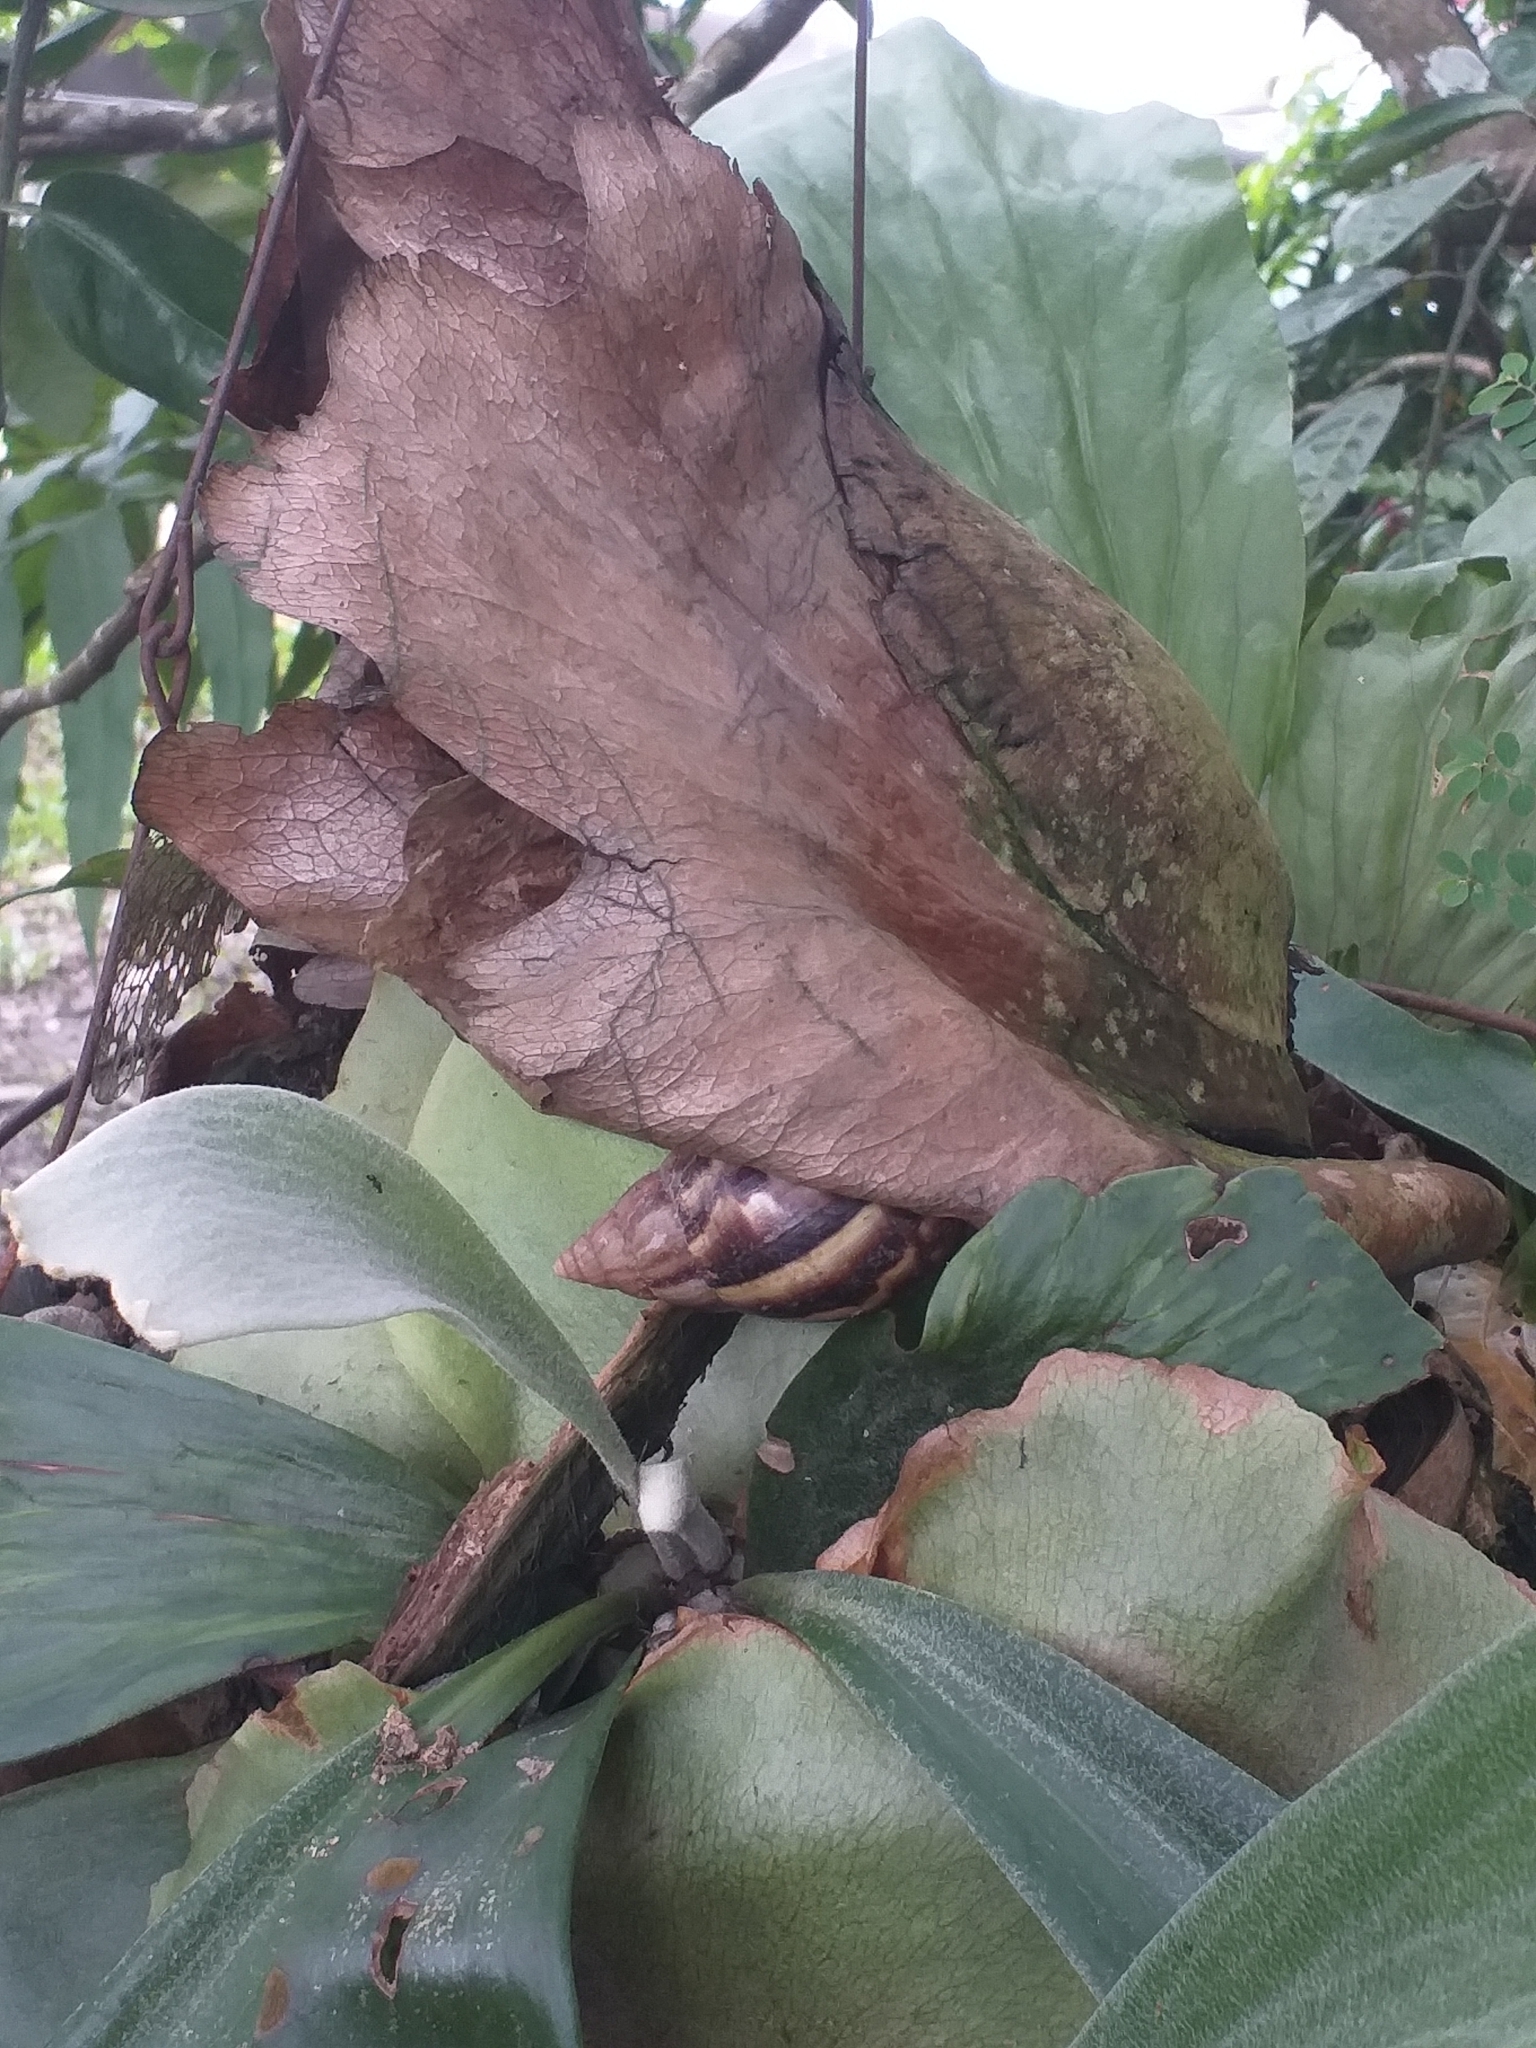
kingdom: Animalia
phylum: Mollusca
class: Gastropoda
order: Stylommatophora
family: Achatinidae
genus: Lissachatina
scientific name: Lissachatina fulica
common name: Giant african snail
